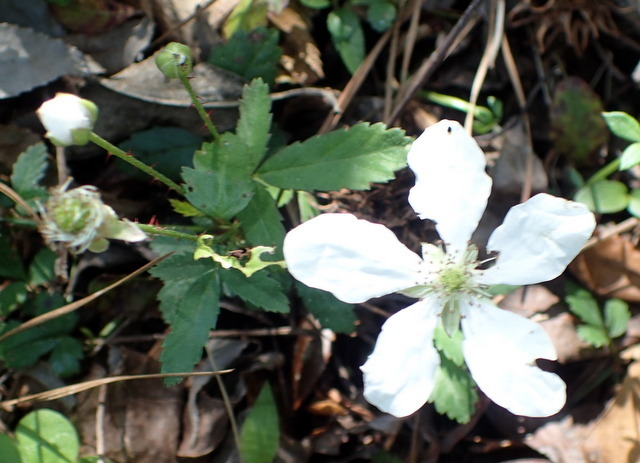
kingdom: Plantae
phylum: Tracheophyta
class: Magnoliopsida
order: Rosales
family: Rosaceae
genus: Rubus
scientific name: Rubus trivialis
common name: Southern dewberry
